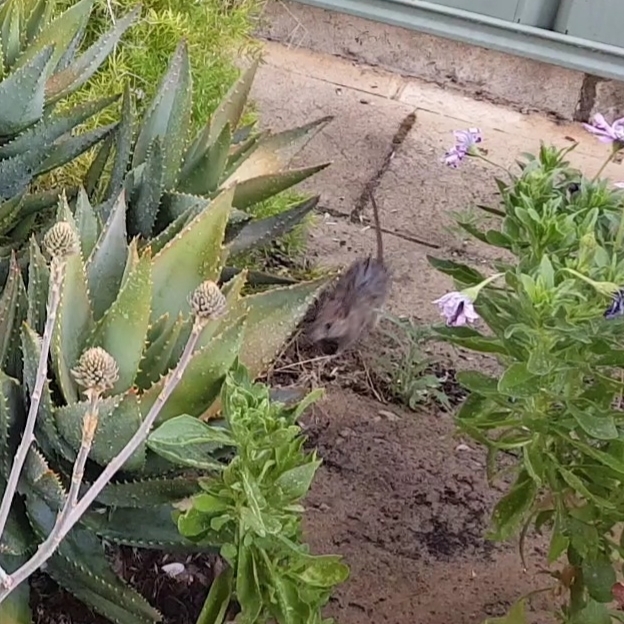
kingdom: Animalia
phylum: Chordata
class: Mammalia
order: Rodentia
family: Muridae
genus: Rattus
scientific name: Rattus rattus
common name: Black rat
